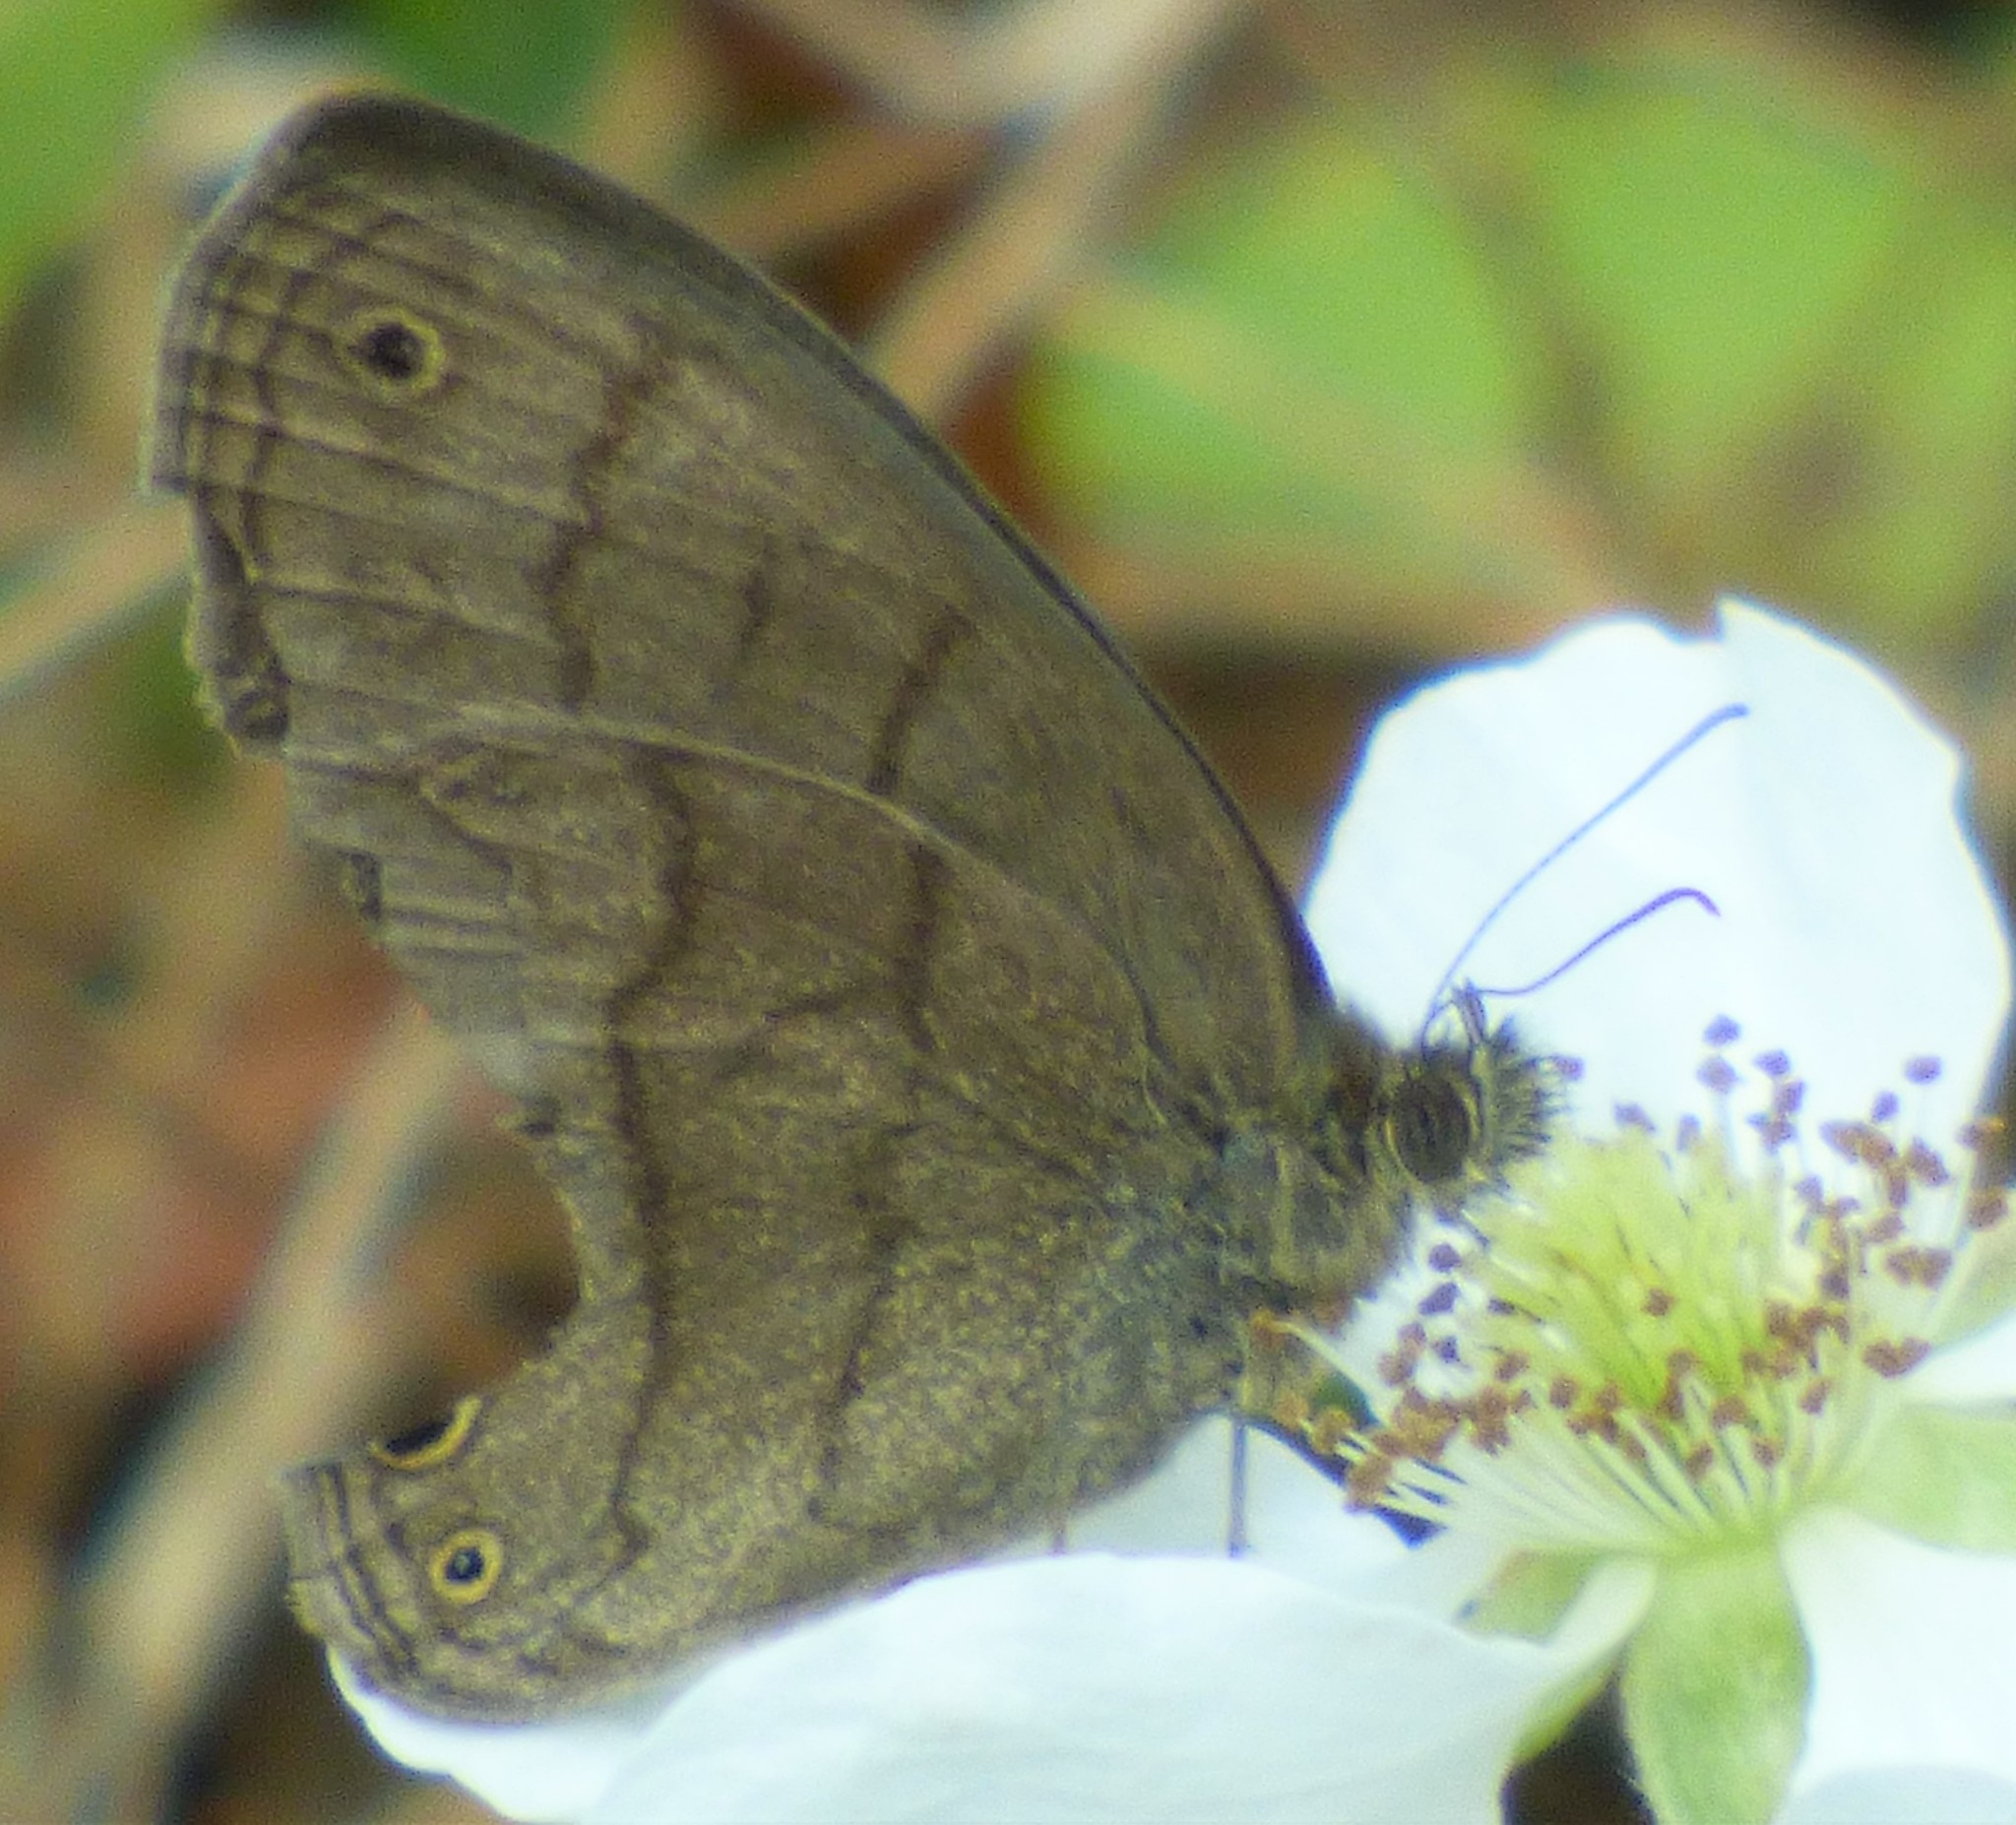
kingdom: Animalia
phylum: Arthropoda
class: Insecta
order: Lepidoptera
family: Nymphalidae
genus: Hermeuptychia
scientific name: Hermeuptychia hermes
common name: Hermes satyr
